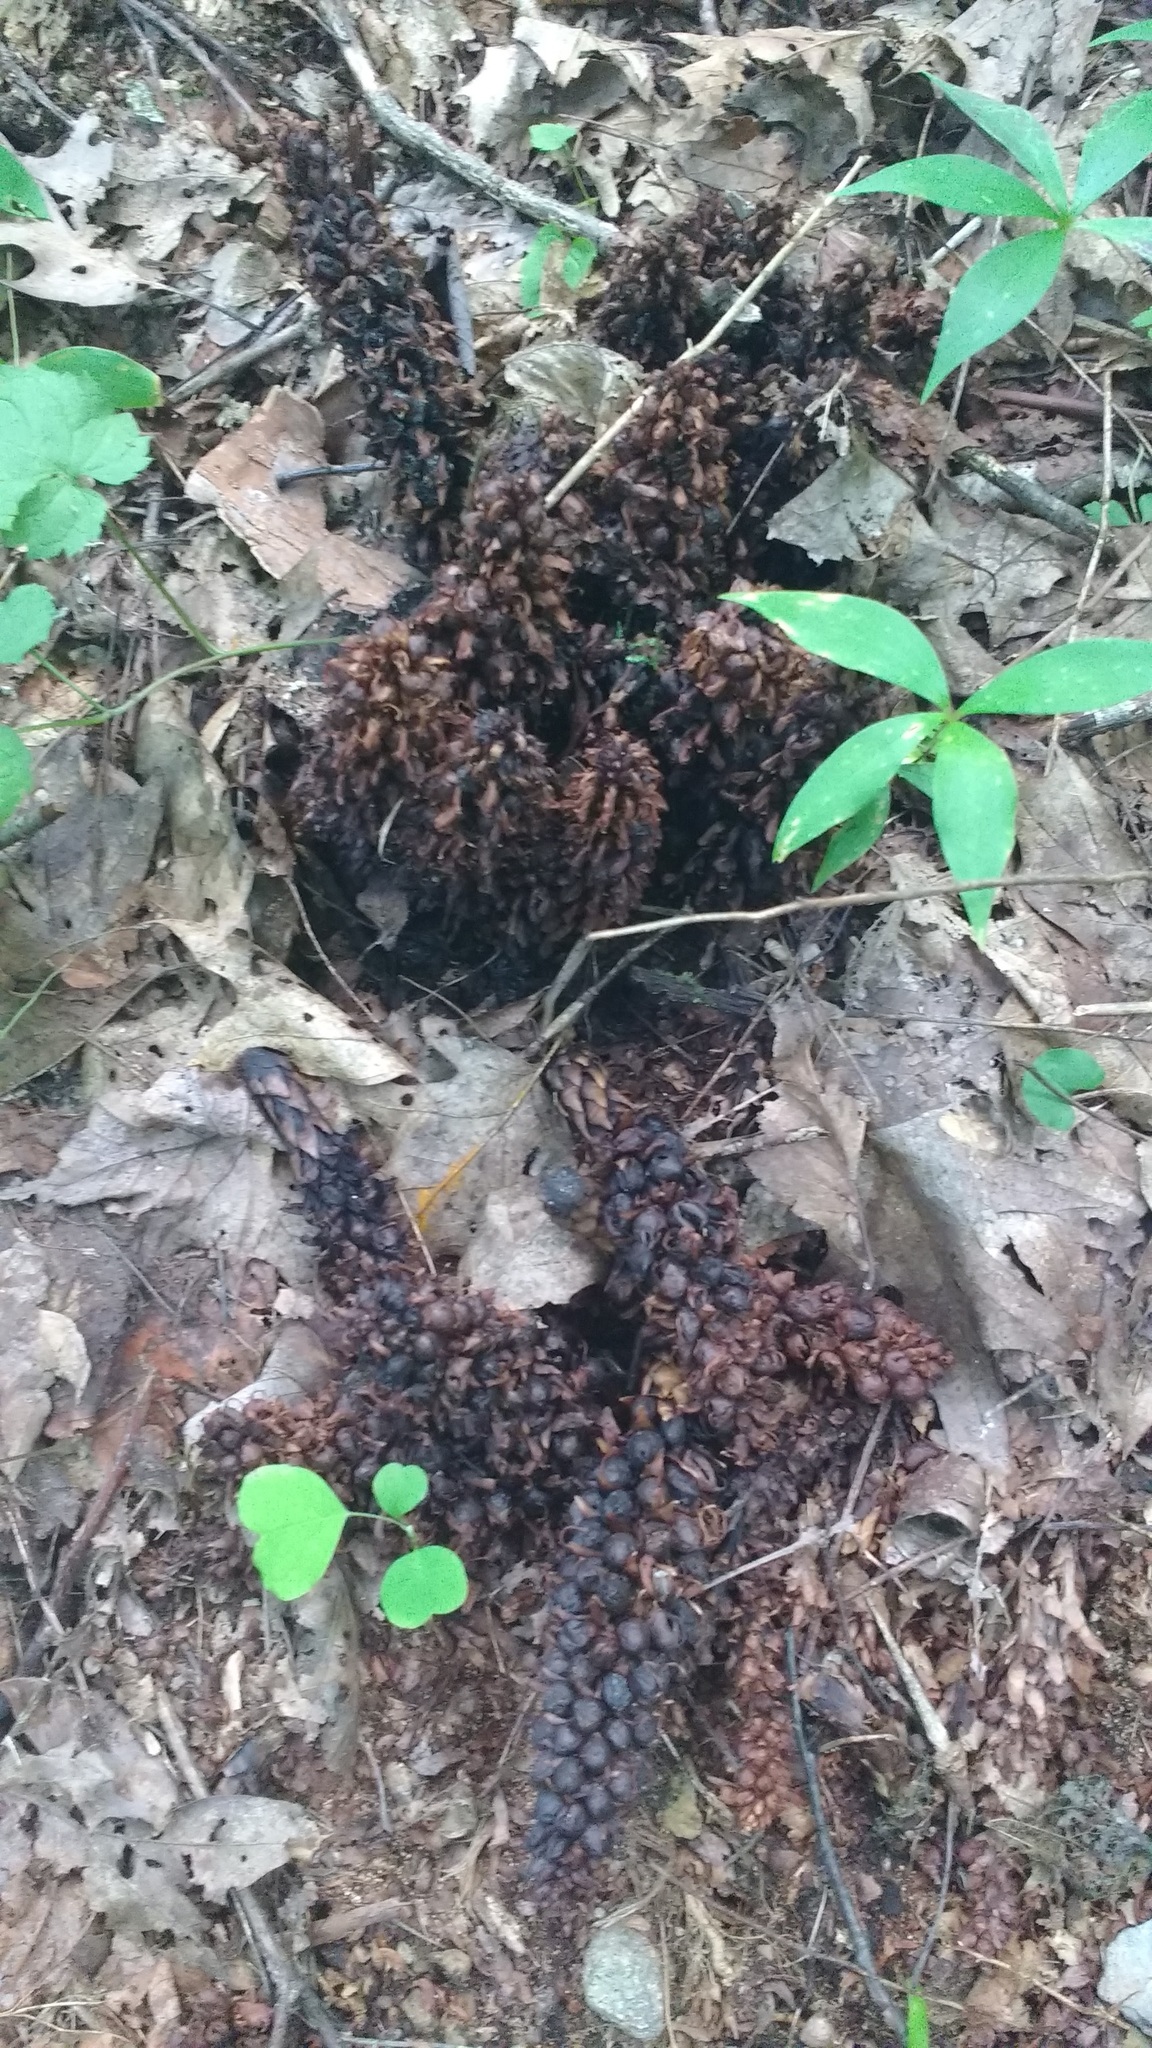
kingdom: Plantae
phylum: Tracheophyta
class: Magnoliopsida
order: Lamiales
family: Orobanchaceae
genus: Conopholis
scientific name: Conopholis americana
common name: American cancer-root
